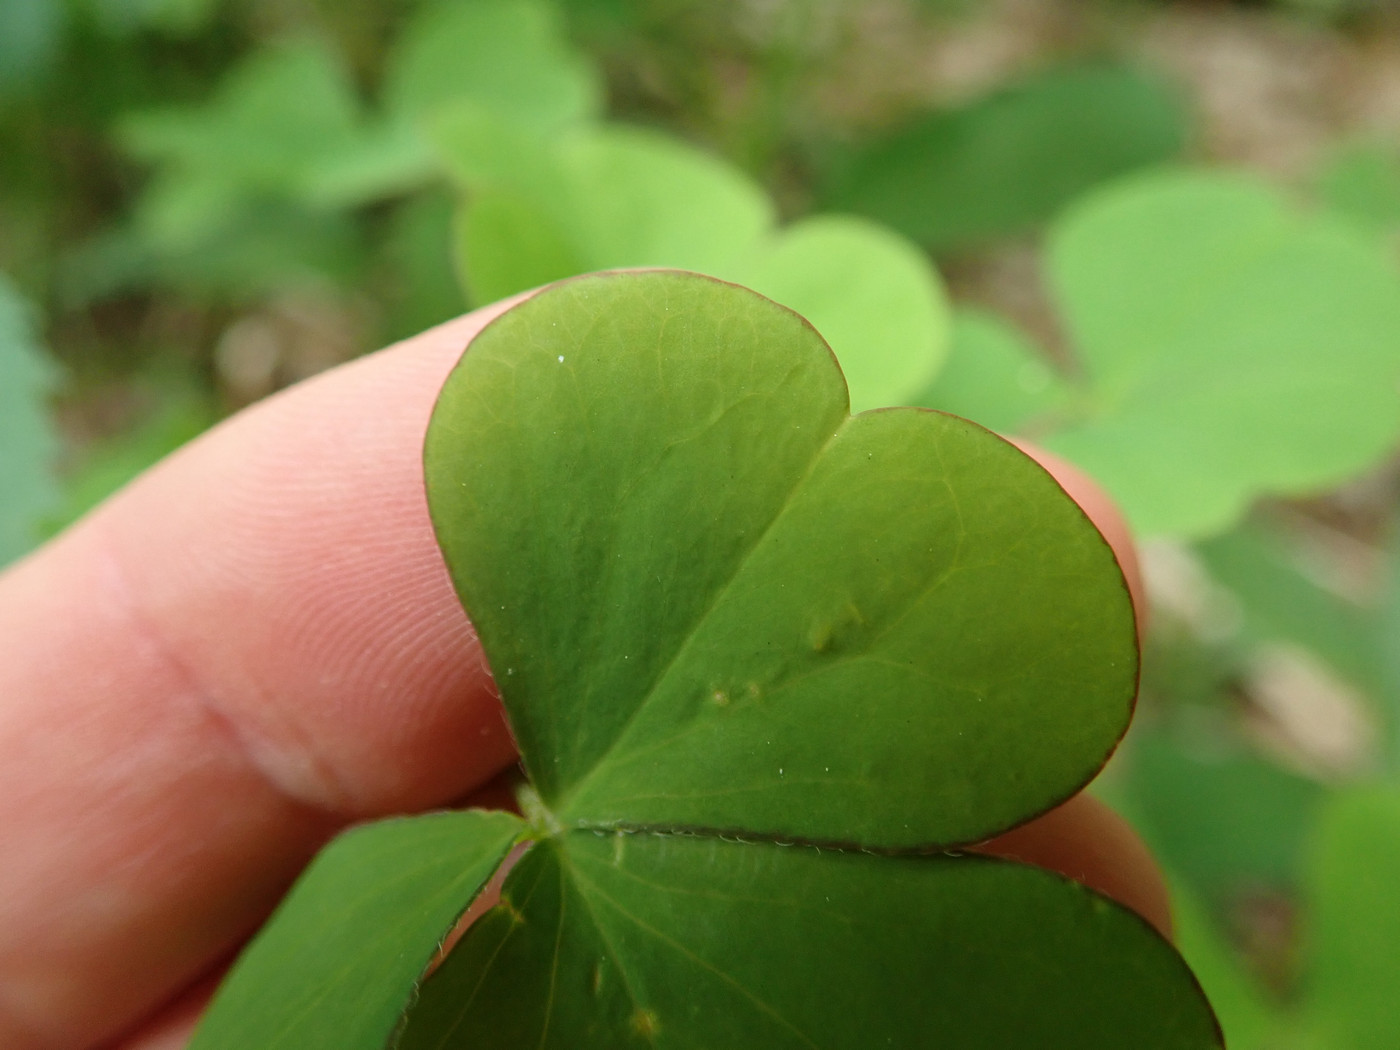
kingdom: Plantae
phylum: Tracheophyta
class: Magnoliopsida
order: Oxalidales
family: Oxalidaceae
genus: Oxalis
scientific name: Oxalis grandis
